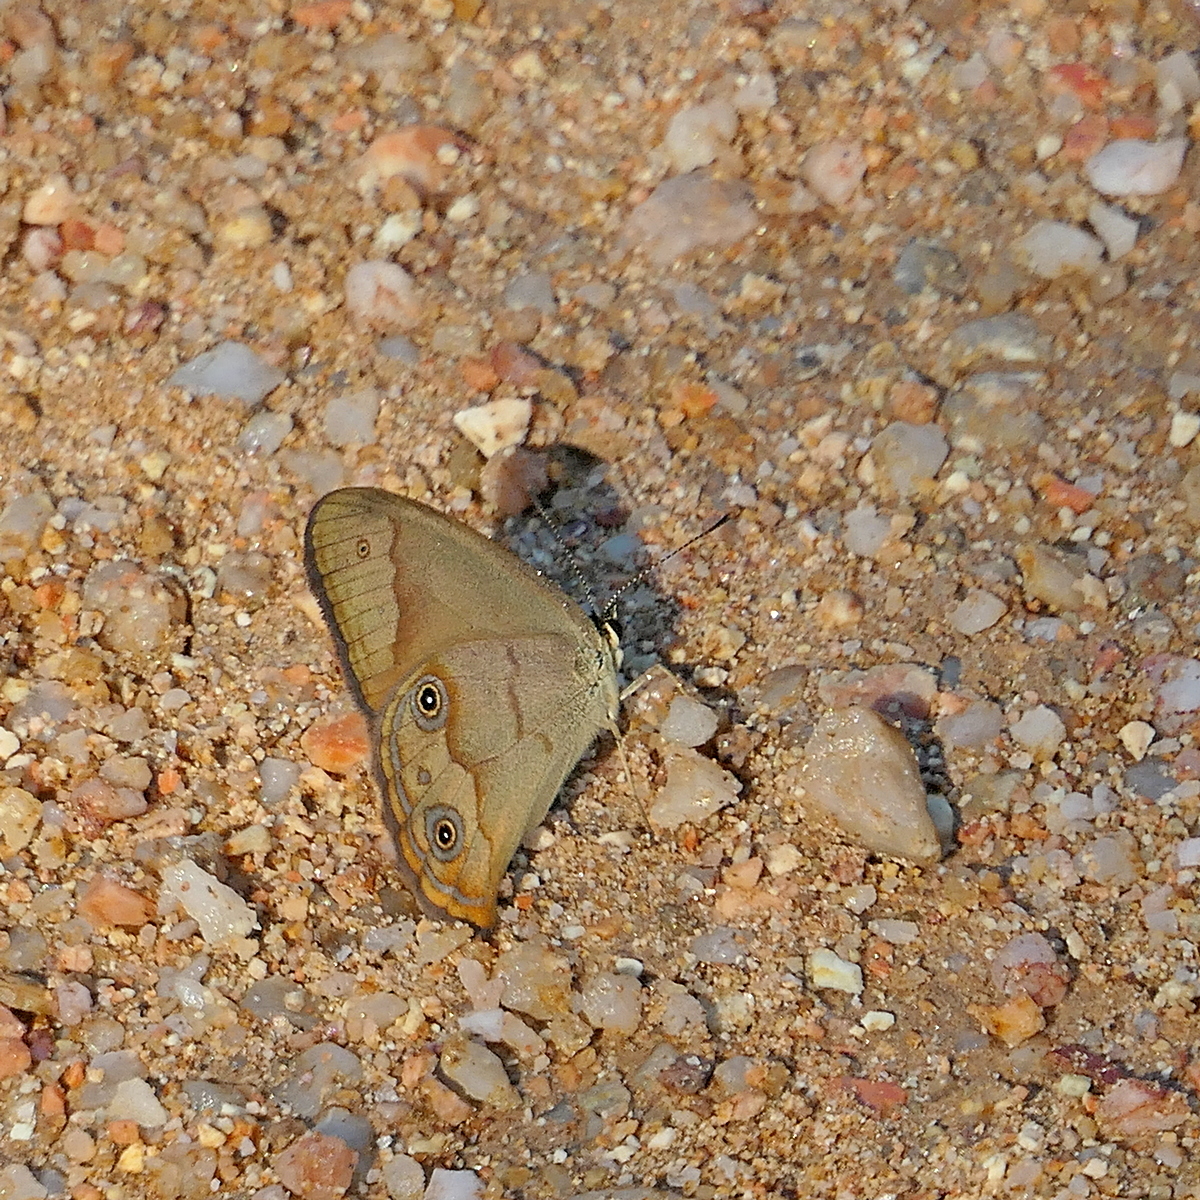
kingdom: Animalia
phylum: Arthropoda
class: Insecta
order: Lepidoptera
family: Nymphalidae
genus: Hypocysta
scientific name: Hypocysta metirius
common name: Brown ringlet
